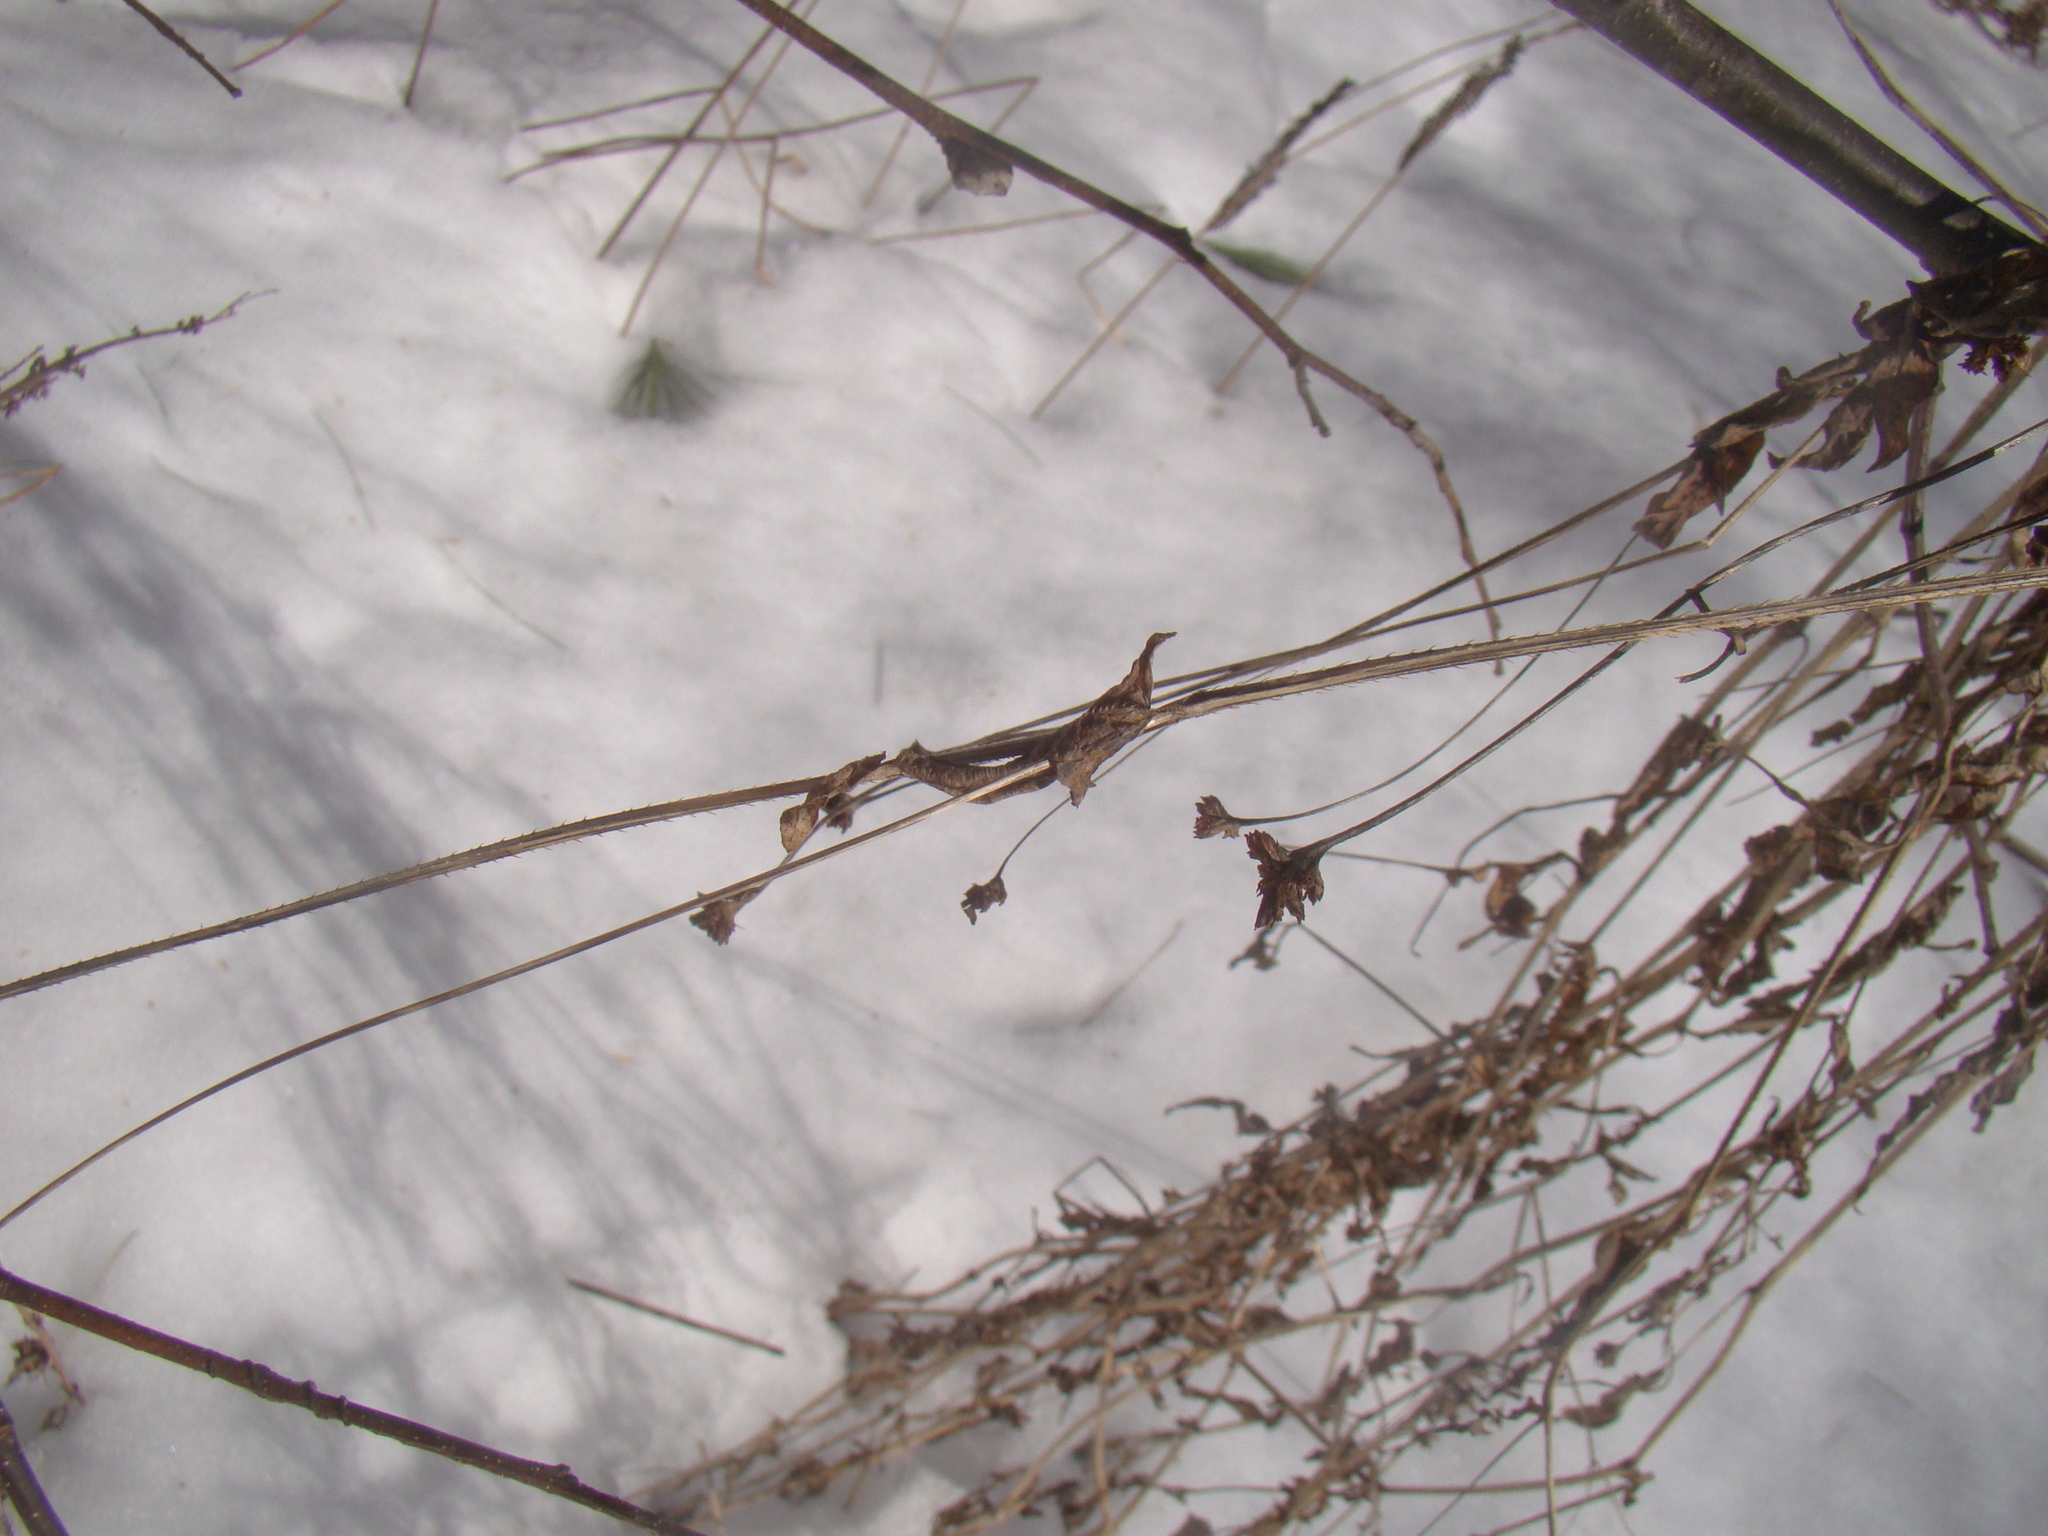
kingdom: Plantae
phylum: Tracheophyta
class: Magnoliopsida
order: Caryophyllales
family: Polygonaceae
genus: Persicaria
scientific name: Persicaria sagittata
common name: American tearthumb
